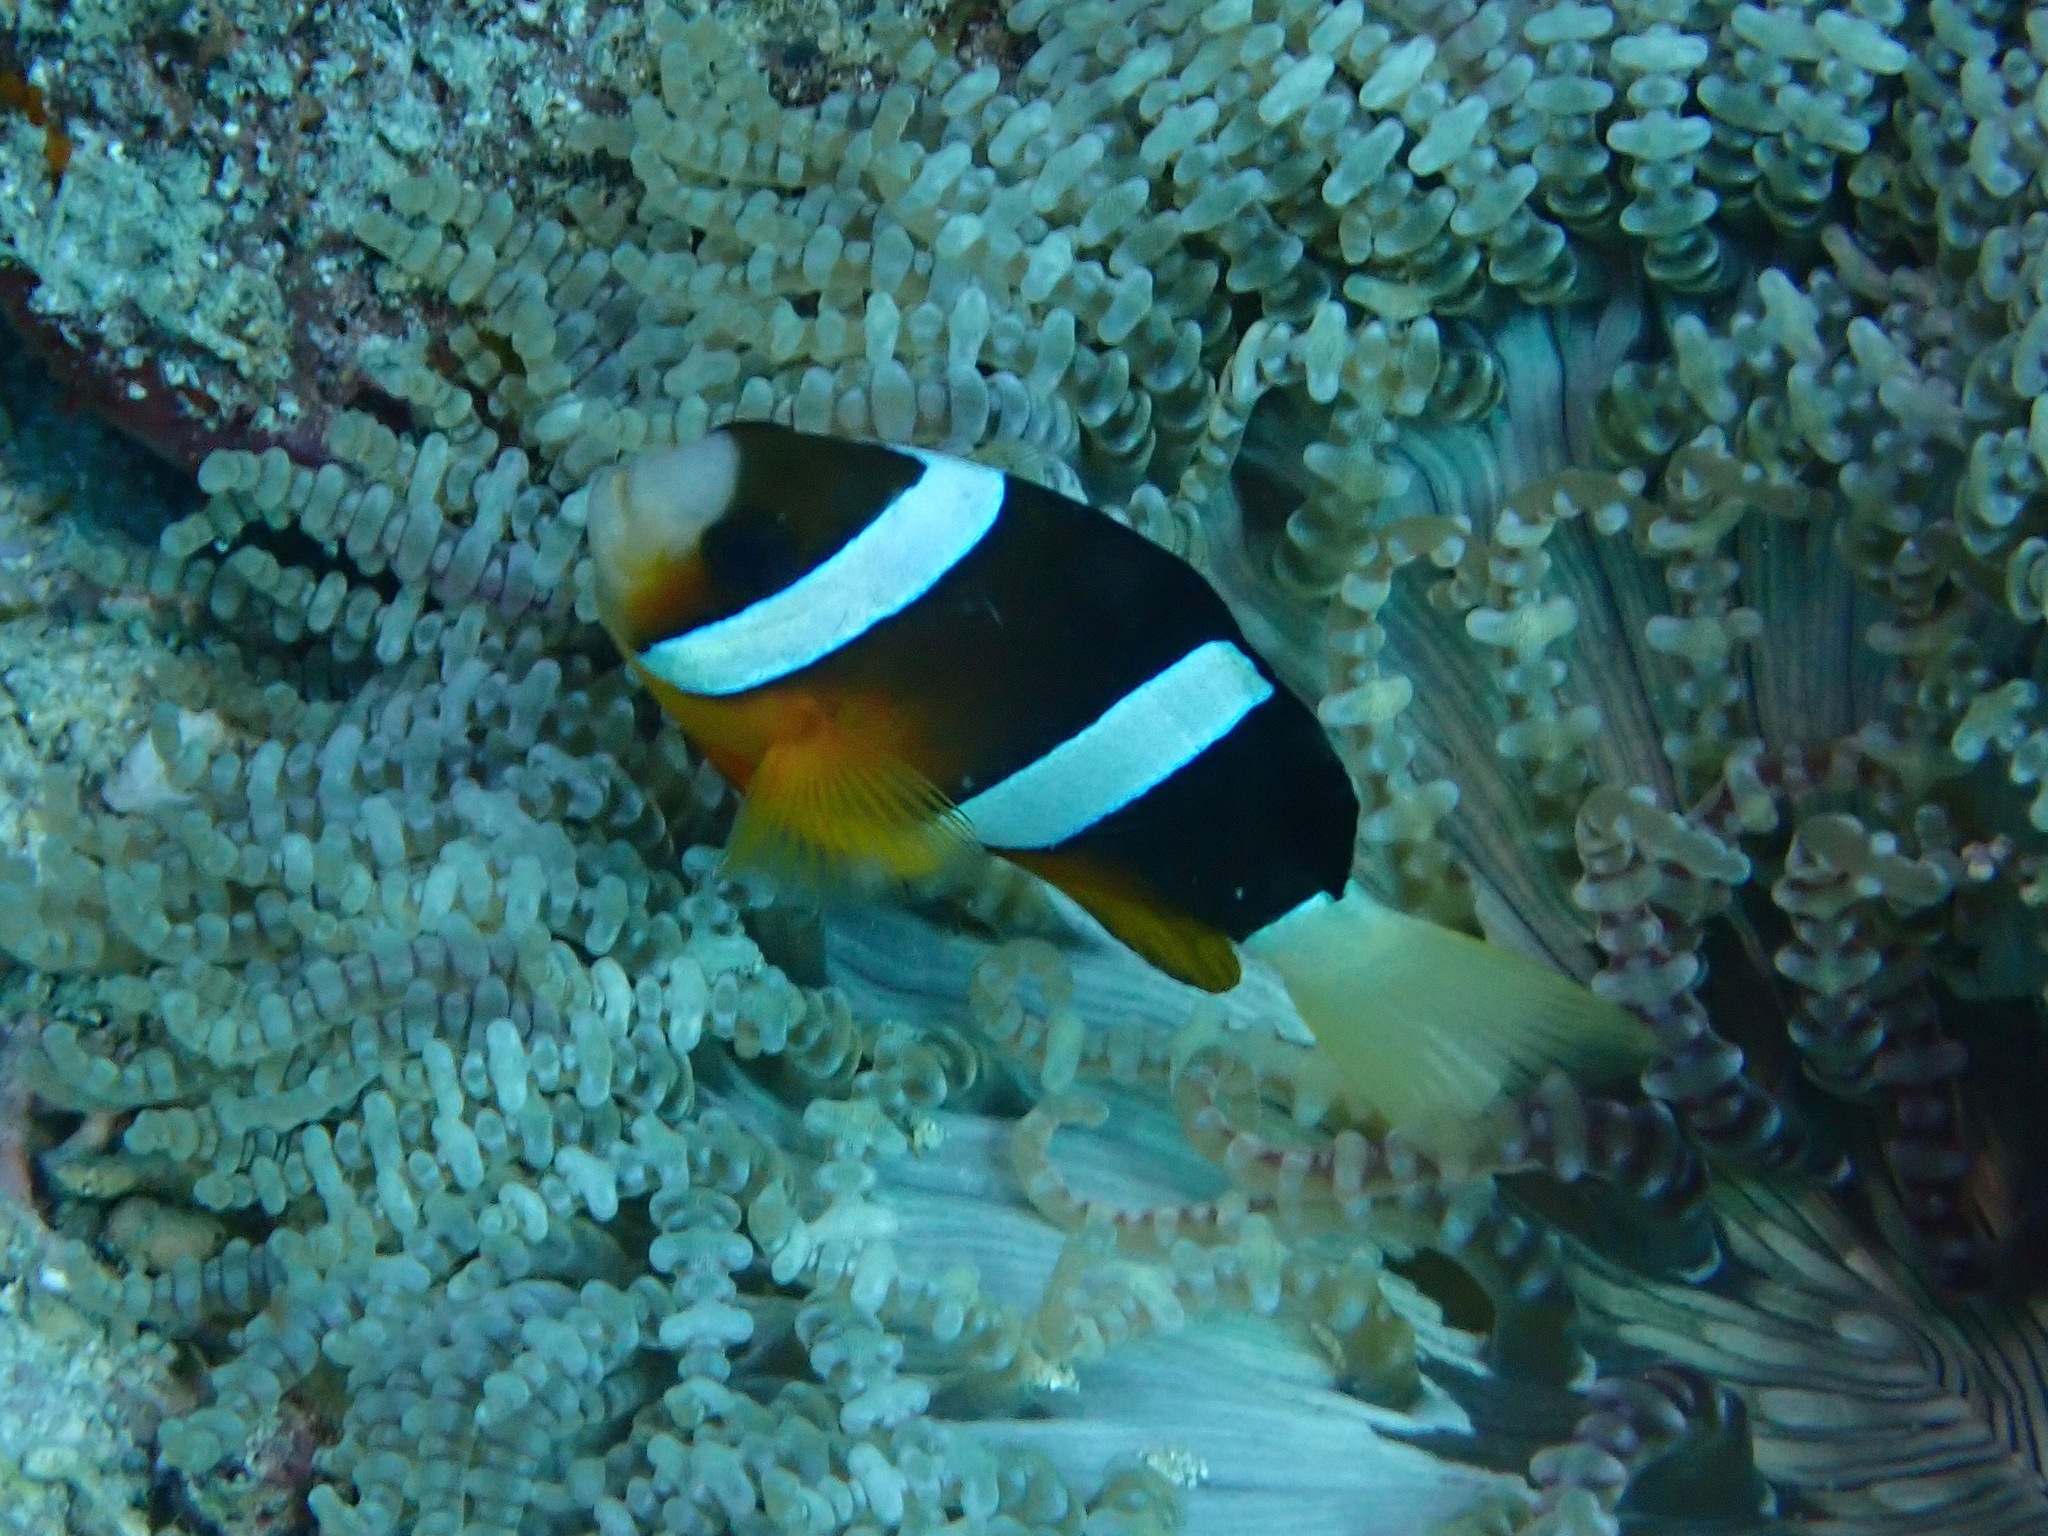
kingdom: Animalia
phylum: Chordata
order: Perciformes
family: Pomacentridae
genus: Amphiprion
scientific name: Amphiprion clarkii
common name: Clark's anemonefish
